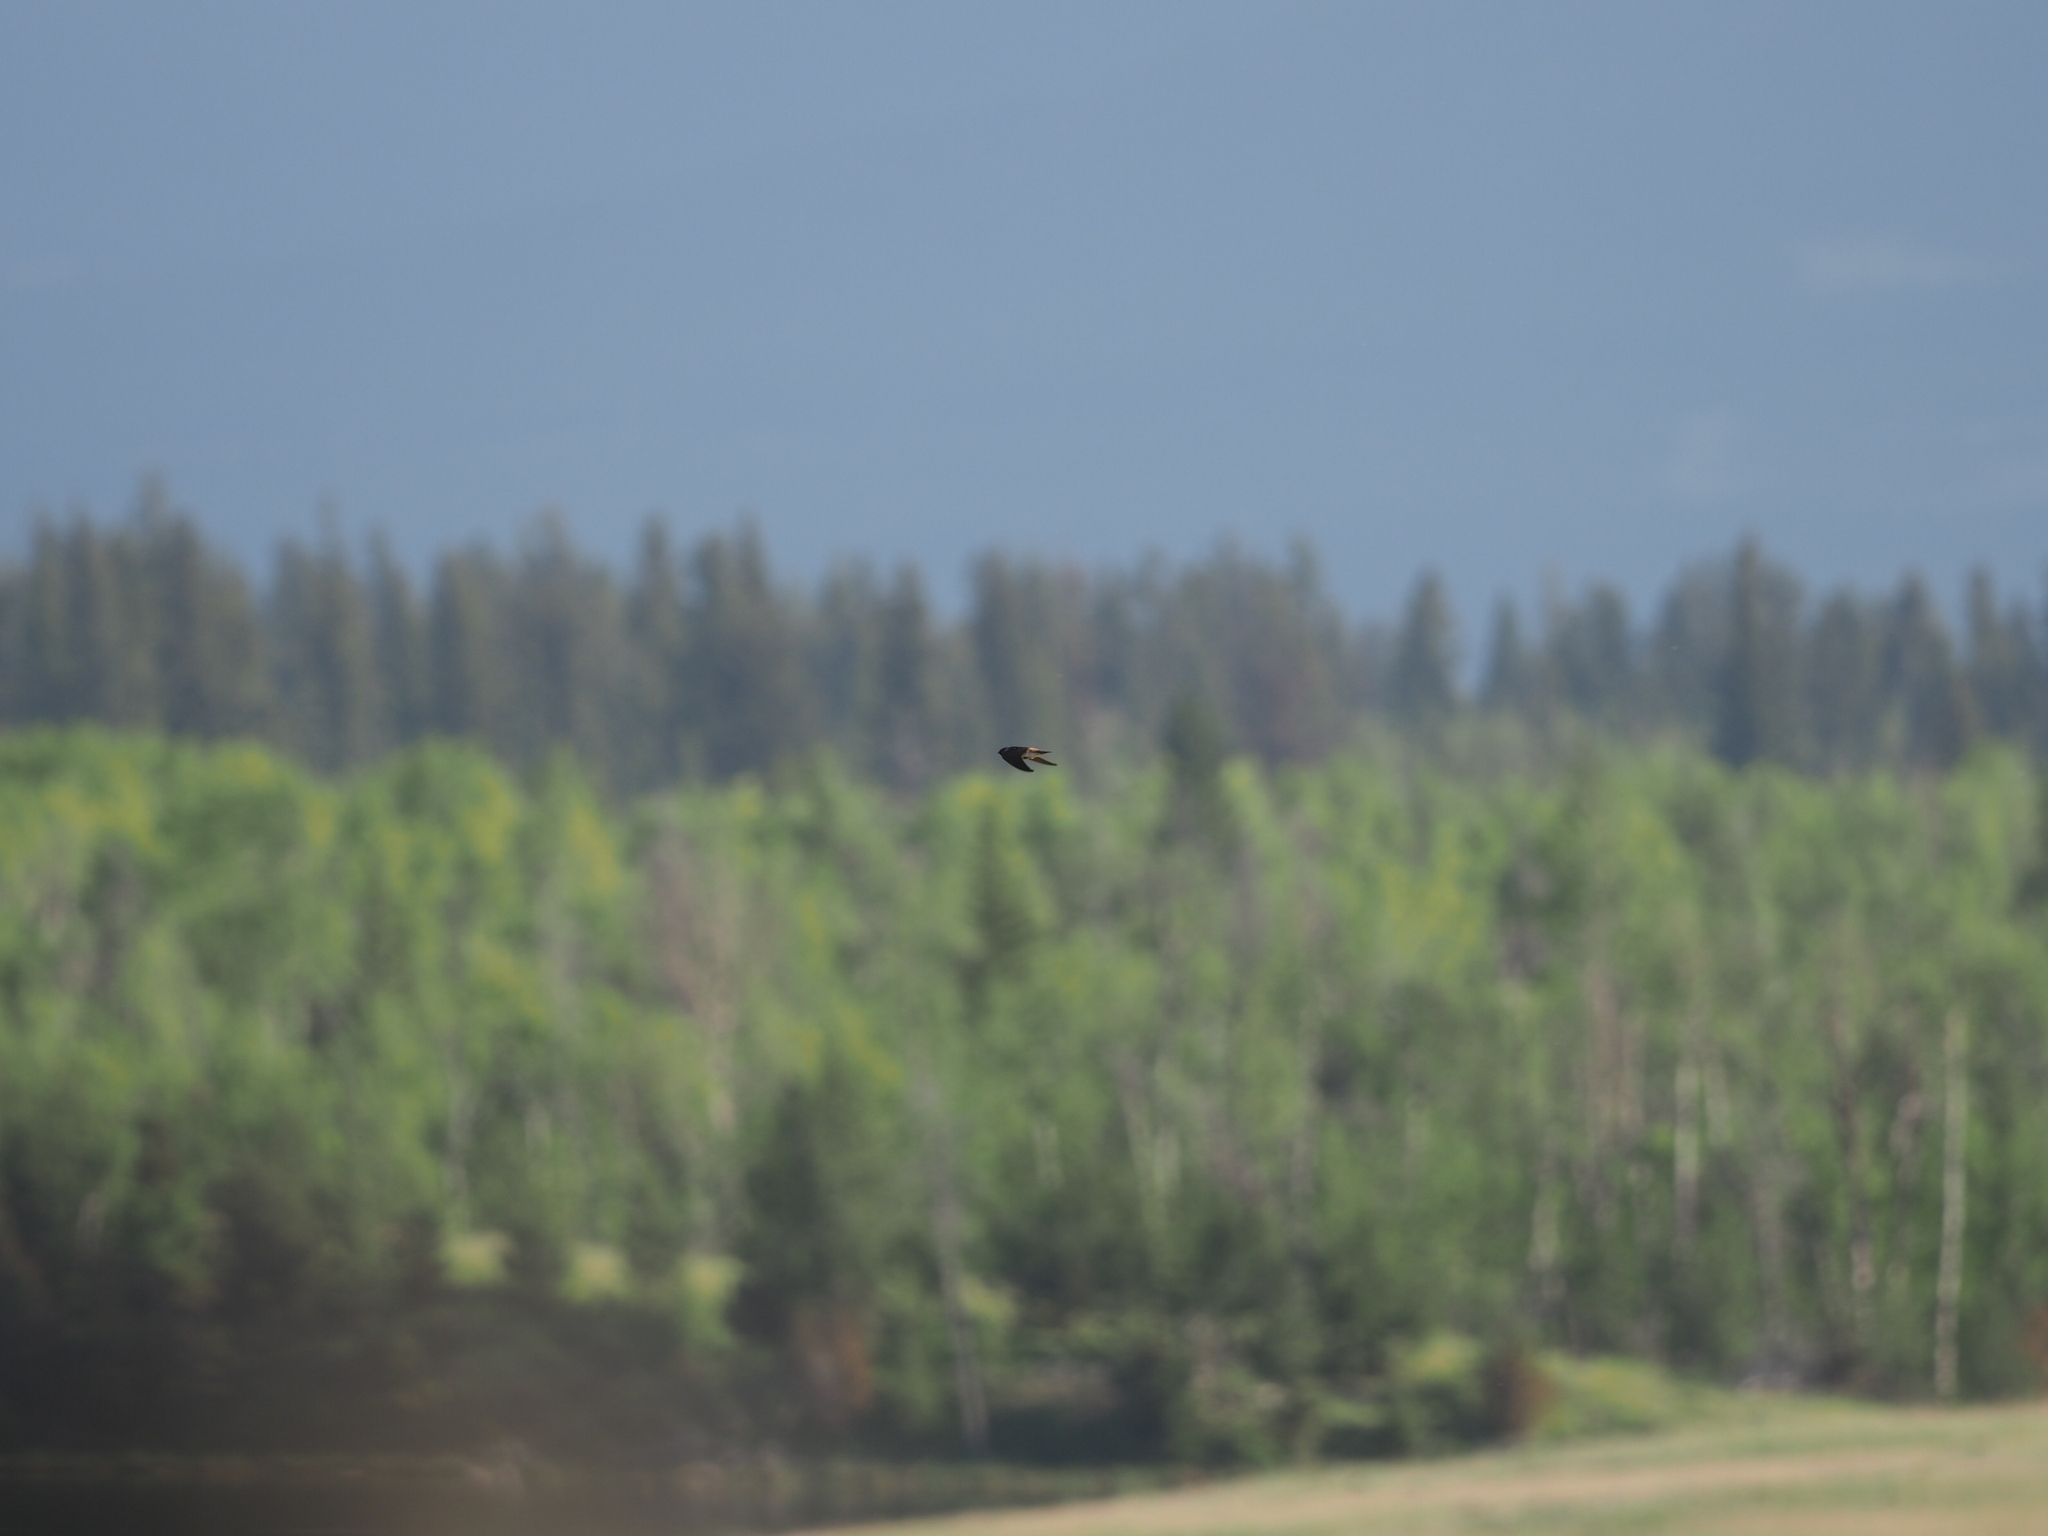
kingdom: Animalia
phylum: Chordata
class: Aves
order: Passeriformes
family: Hirundinidae
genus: Petrochelidon
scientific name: Petrochelidon pyrrhonota
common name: American cliff swallow
